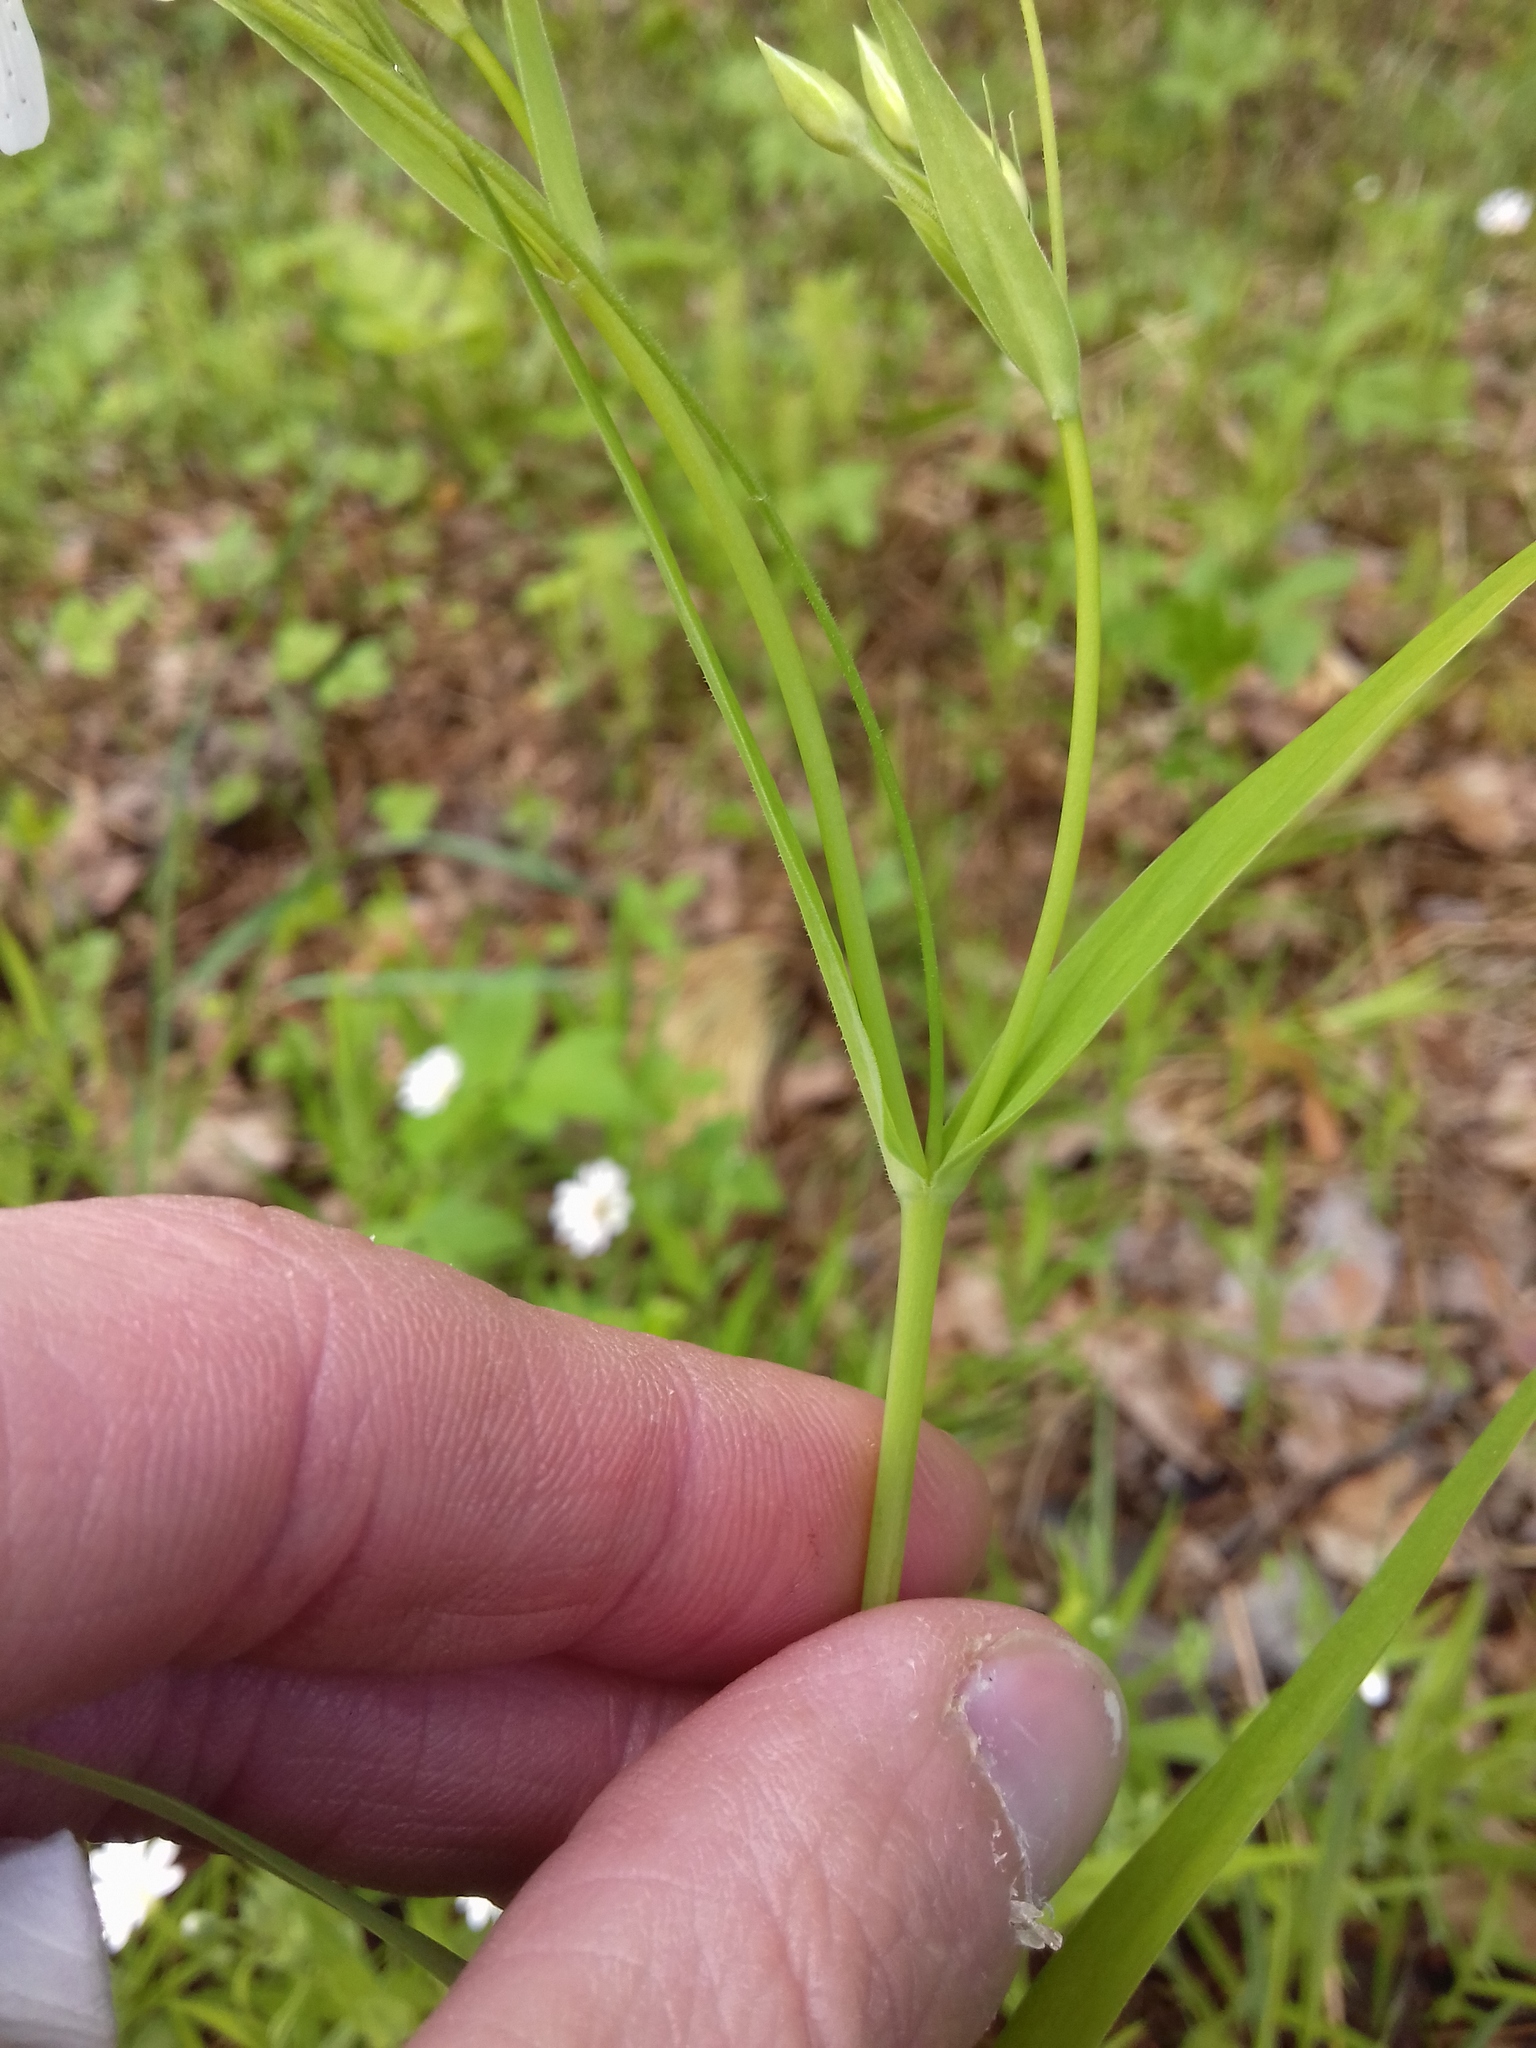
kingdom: Plantae
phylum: Tracheophyta
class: Magnoliopsida
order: Caryophyllales
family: Caryophyllaceae
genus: Rabelera
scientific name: Rabelera holostea
